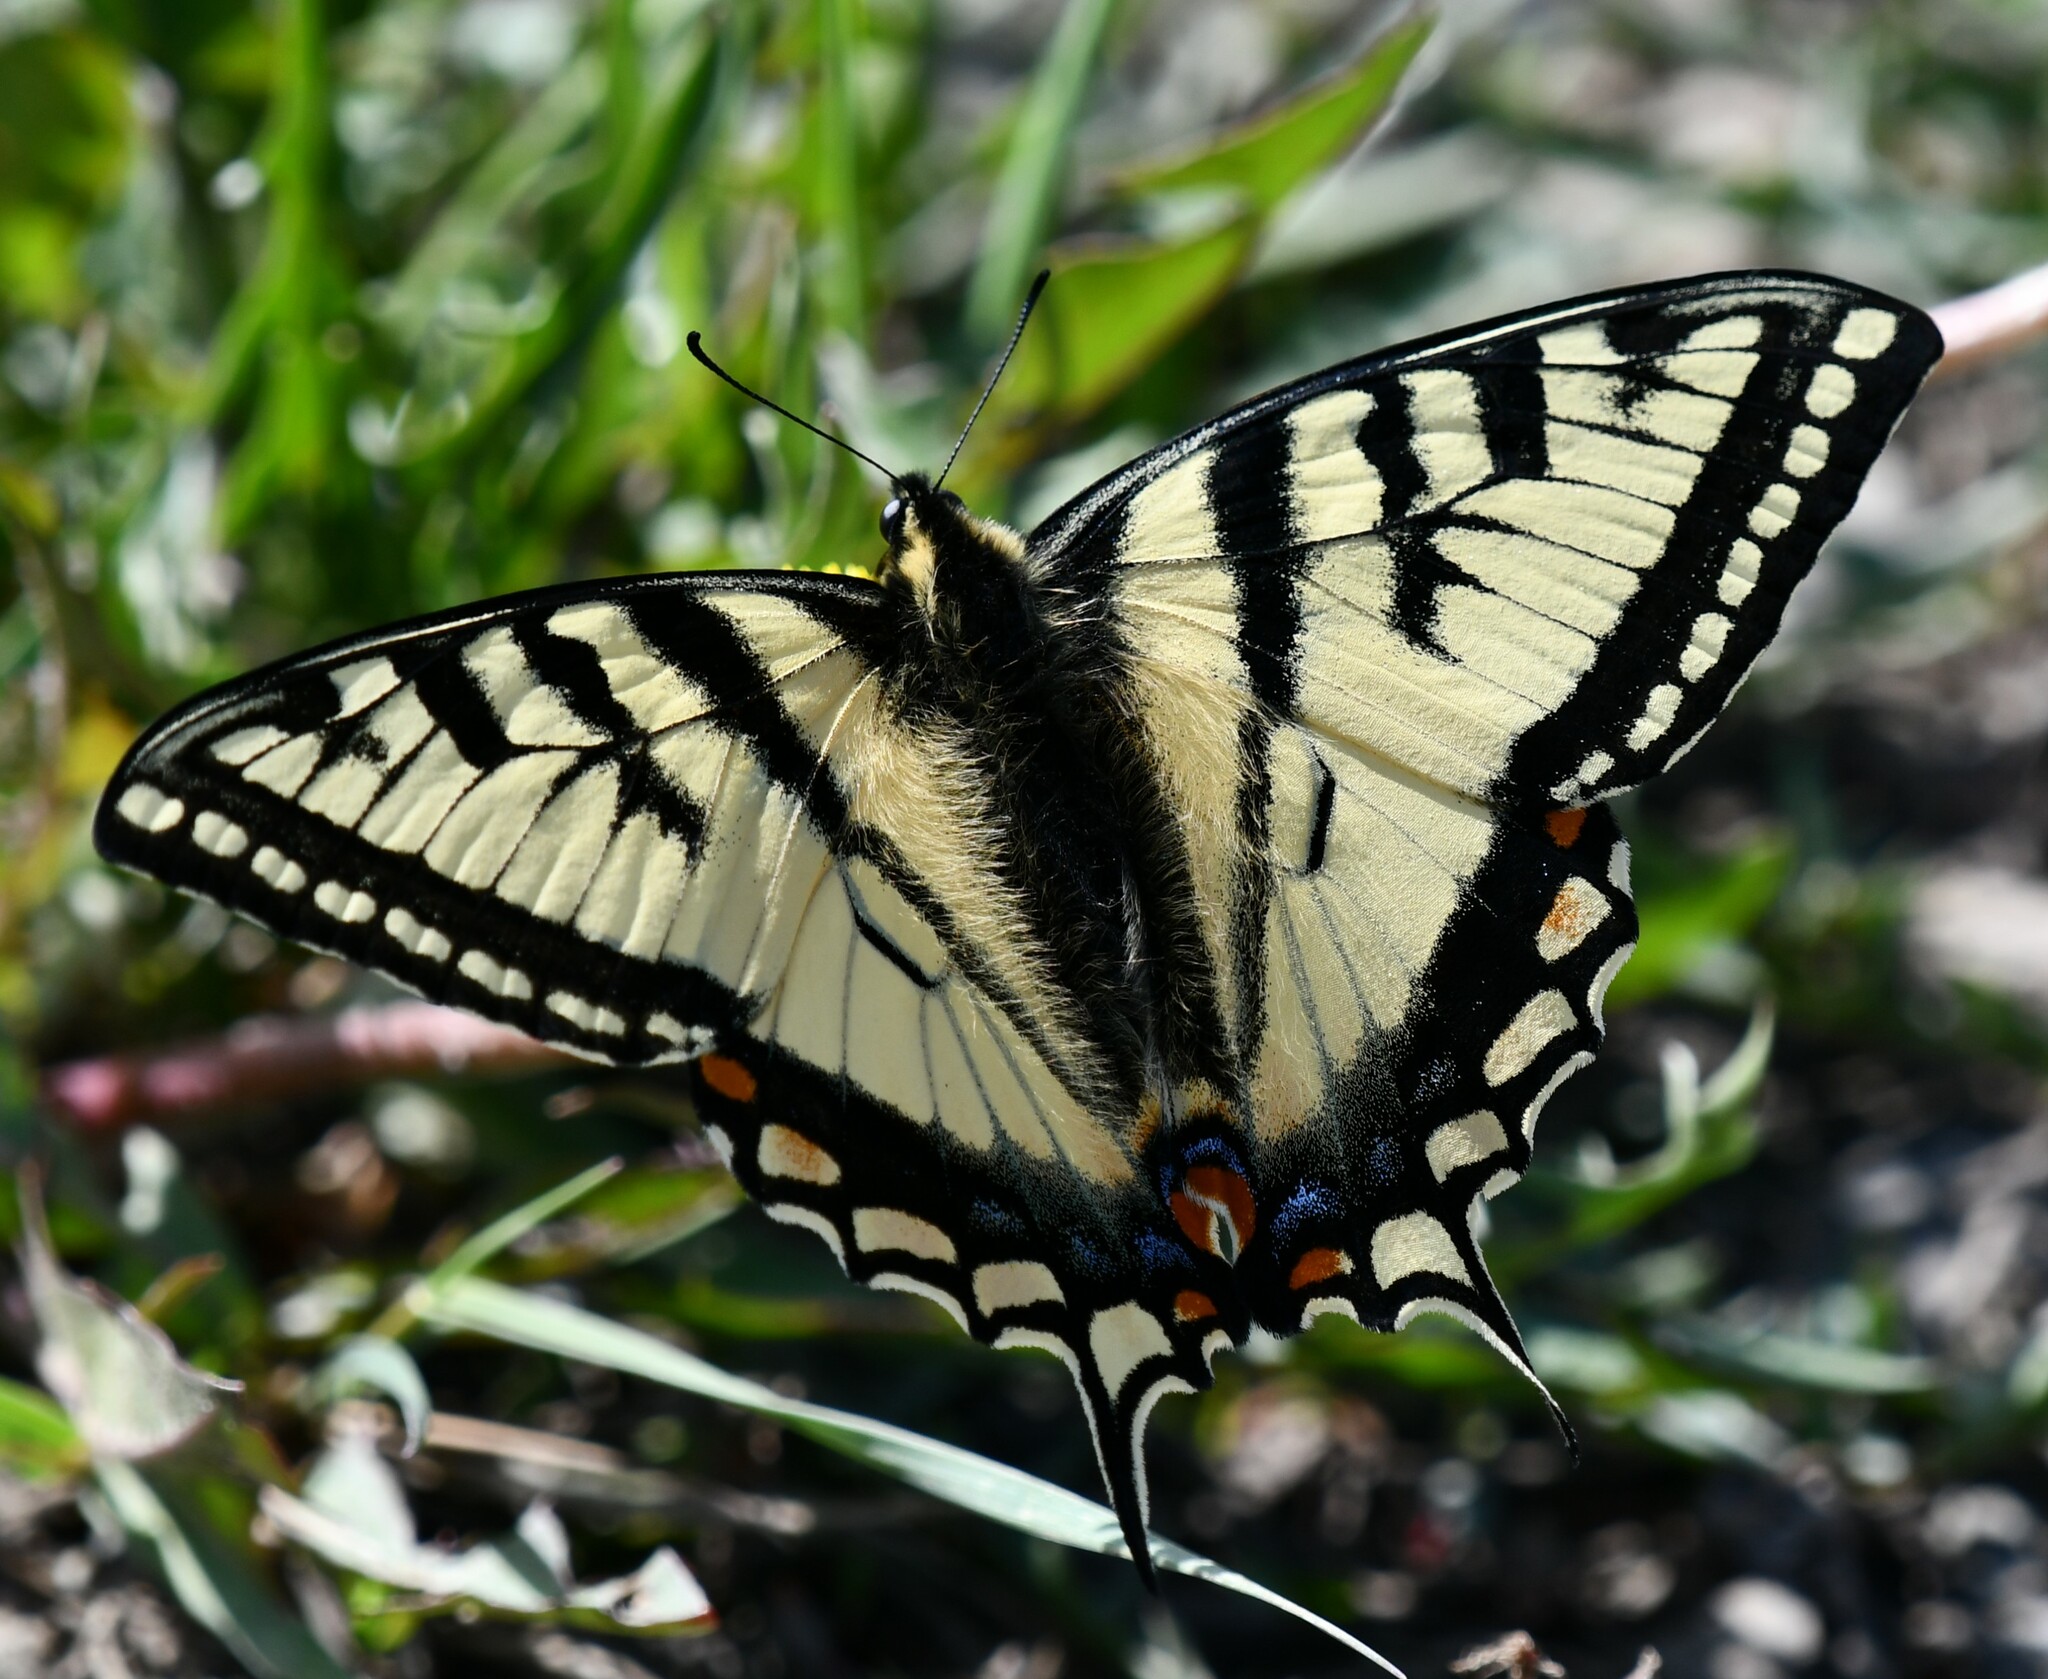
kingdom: Animalia
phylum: Arthropoda
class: Insecta
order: Lepidoptera
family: Papilionidae
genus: Papilio
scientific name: Papilio canadensis
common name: Canadian tiger swallowtail
